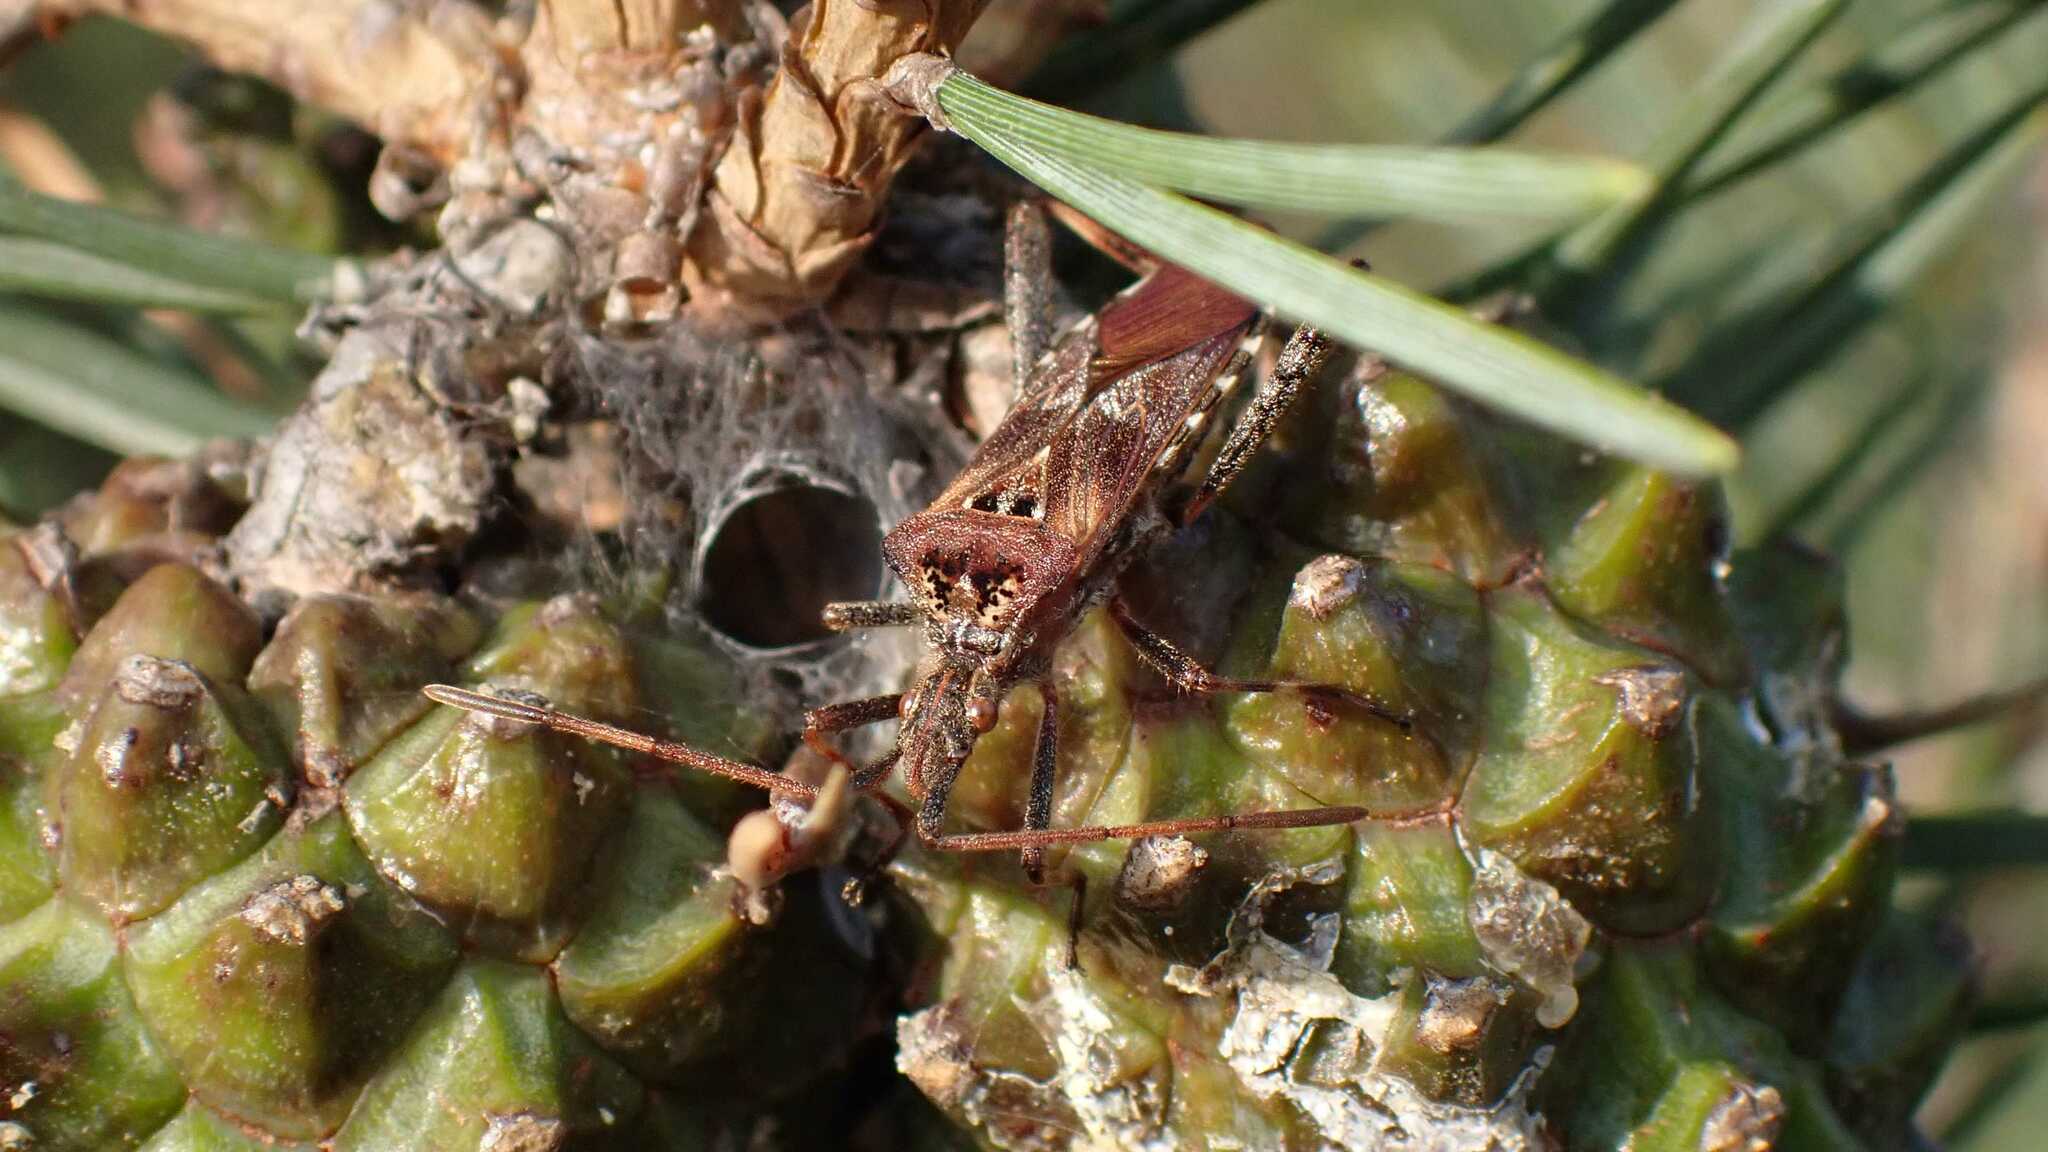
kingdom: Animalia
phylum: Arthropoda
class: Insecta
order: Hemiptera
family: Coreidae
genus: Leptoglossus
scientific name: Leptoglossus occidentalis
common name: Western conifer-seed bug
